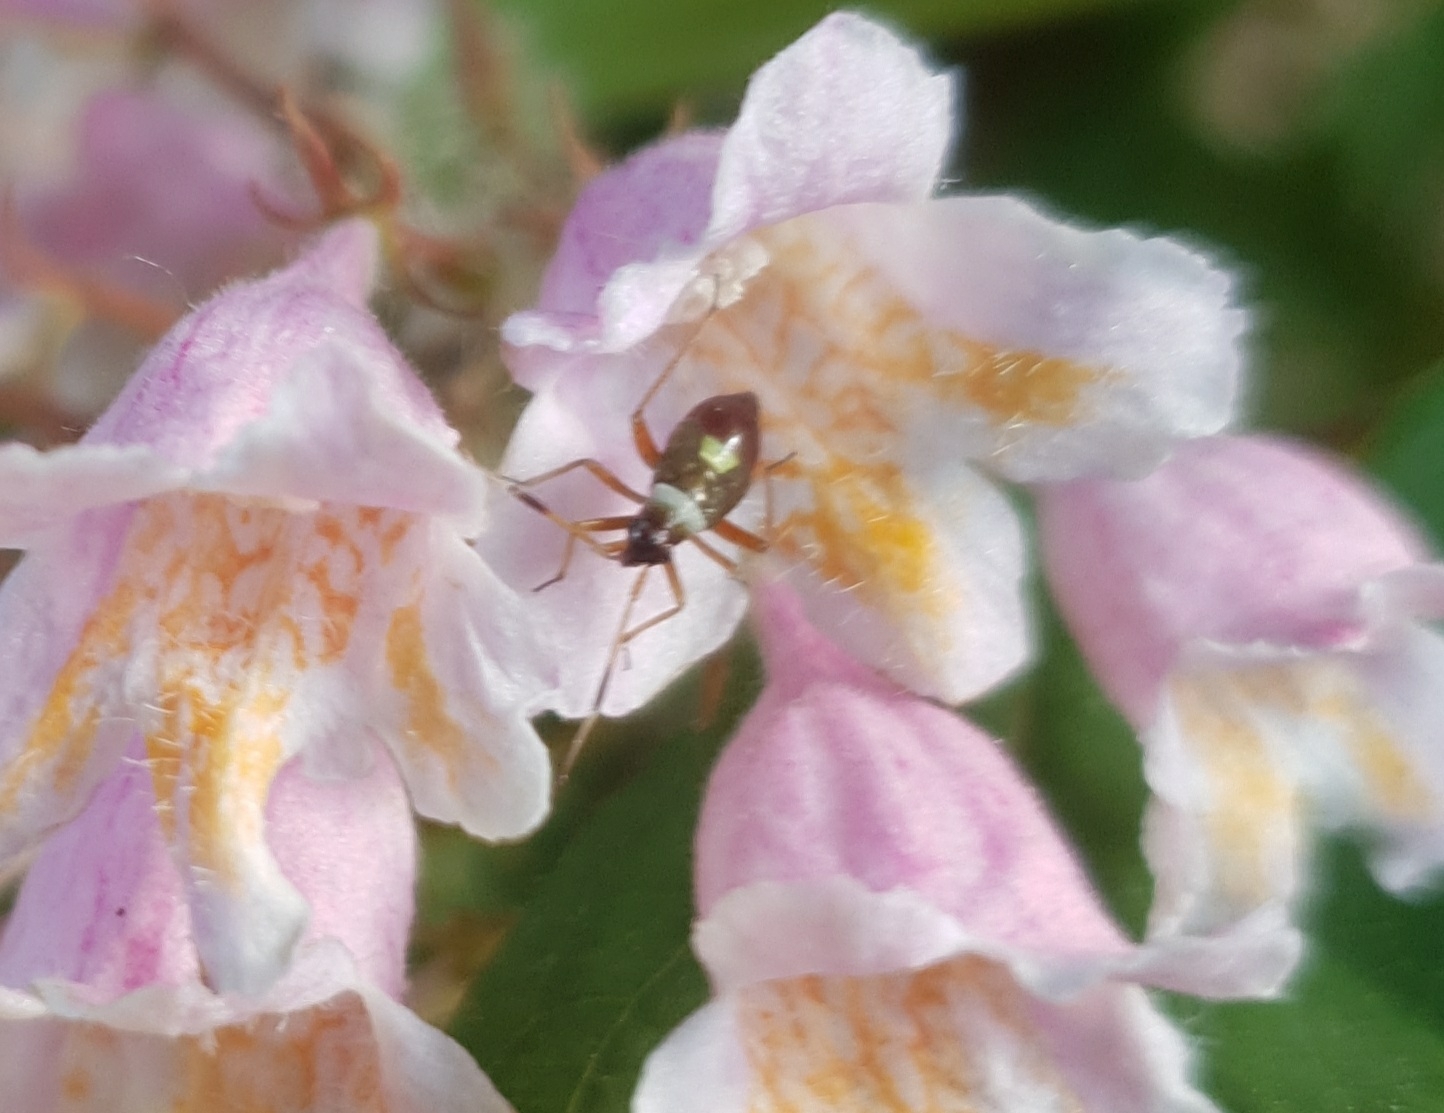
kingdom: Animalia
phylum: Arthropoda
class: Insecta
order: Hemiptera
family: Miridae
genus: Closterotomus
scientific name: Closterotomus biclavatus
